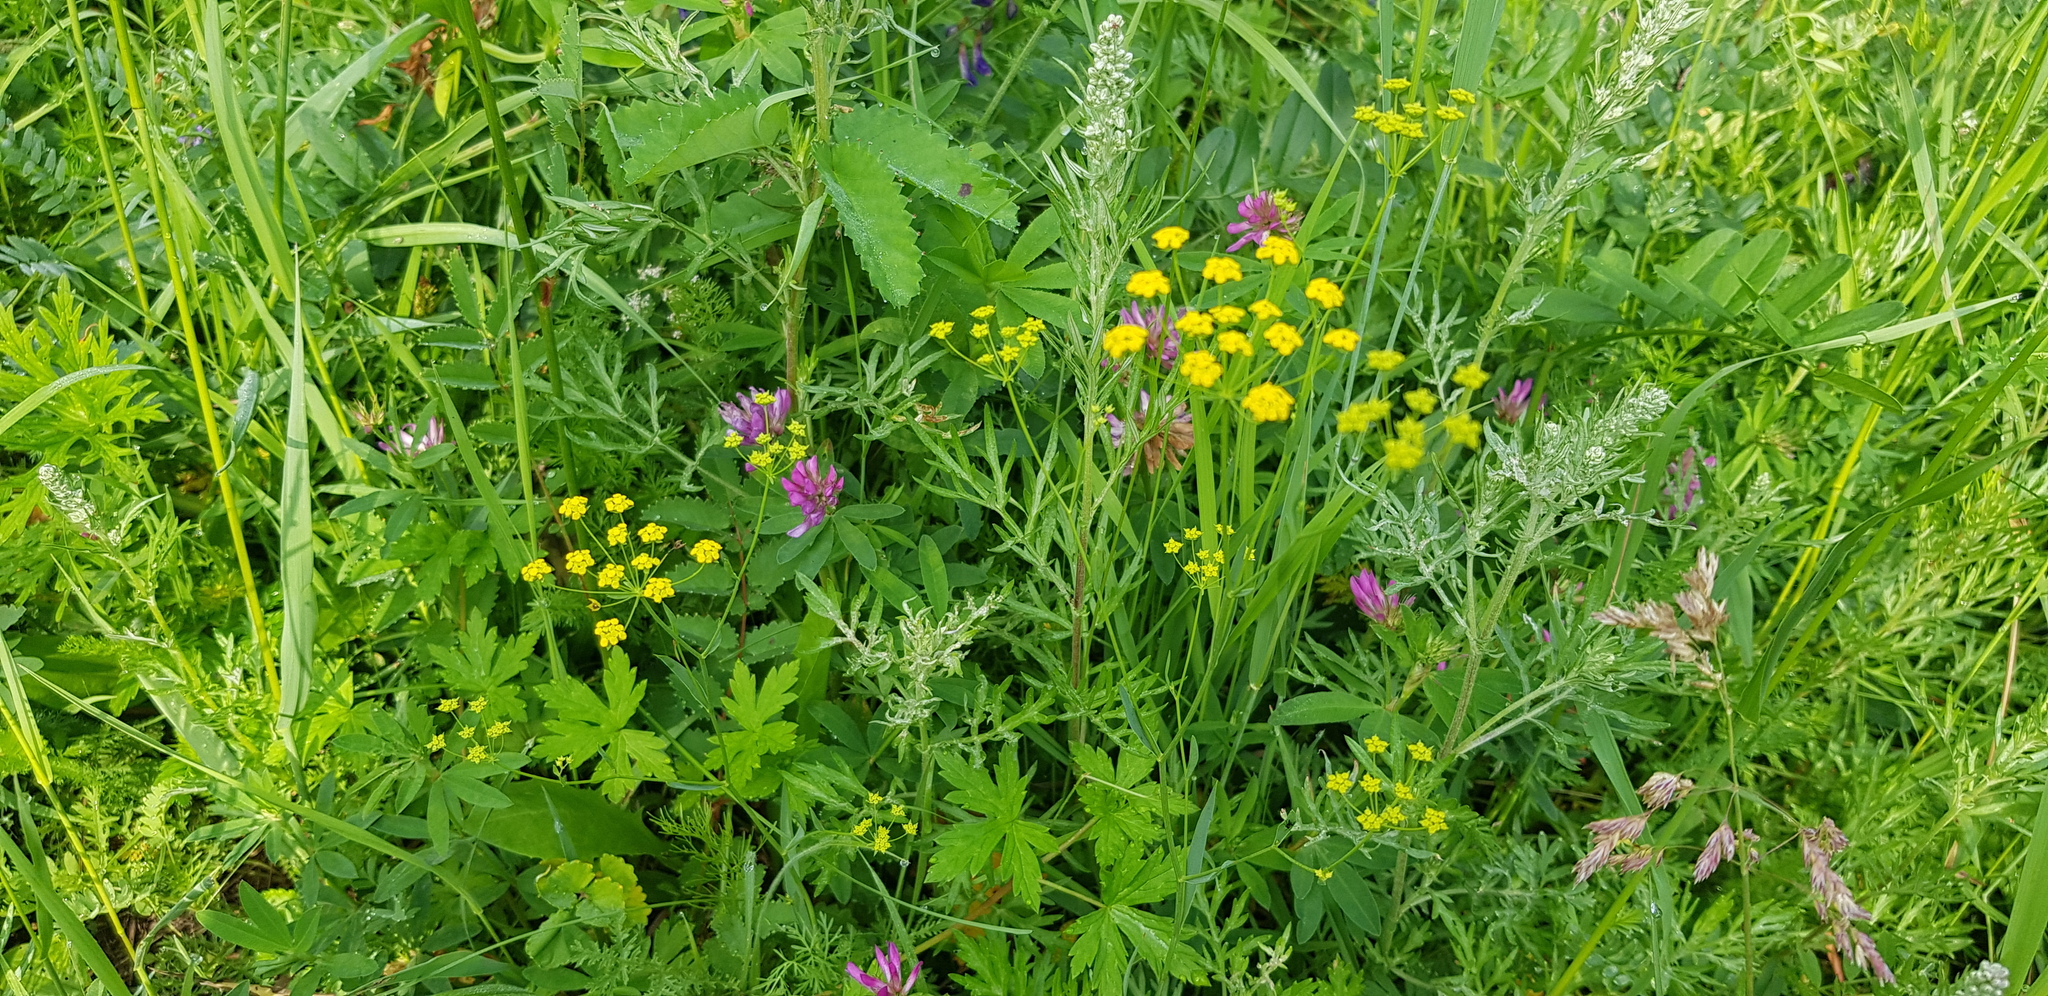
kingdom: Plantae
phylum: Tracheophyta
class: Magnoliopsida
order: Apiales
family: Apiaceae
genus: Bupleurum
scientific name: Bupleurum scorzonerifolium
